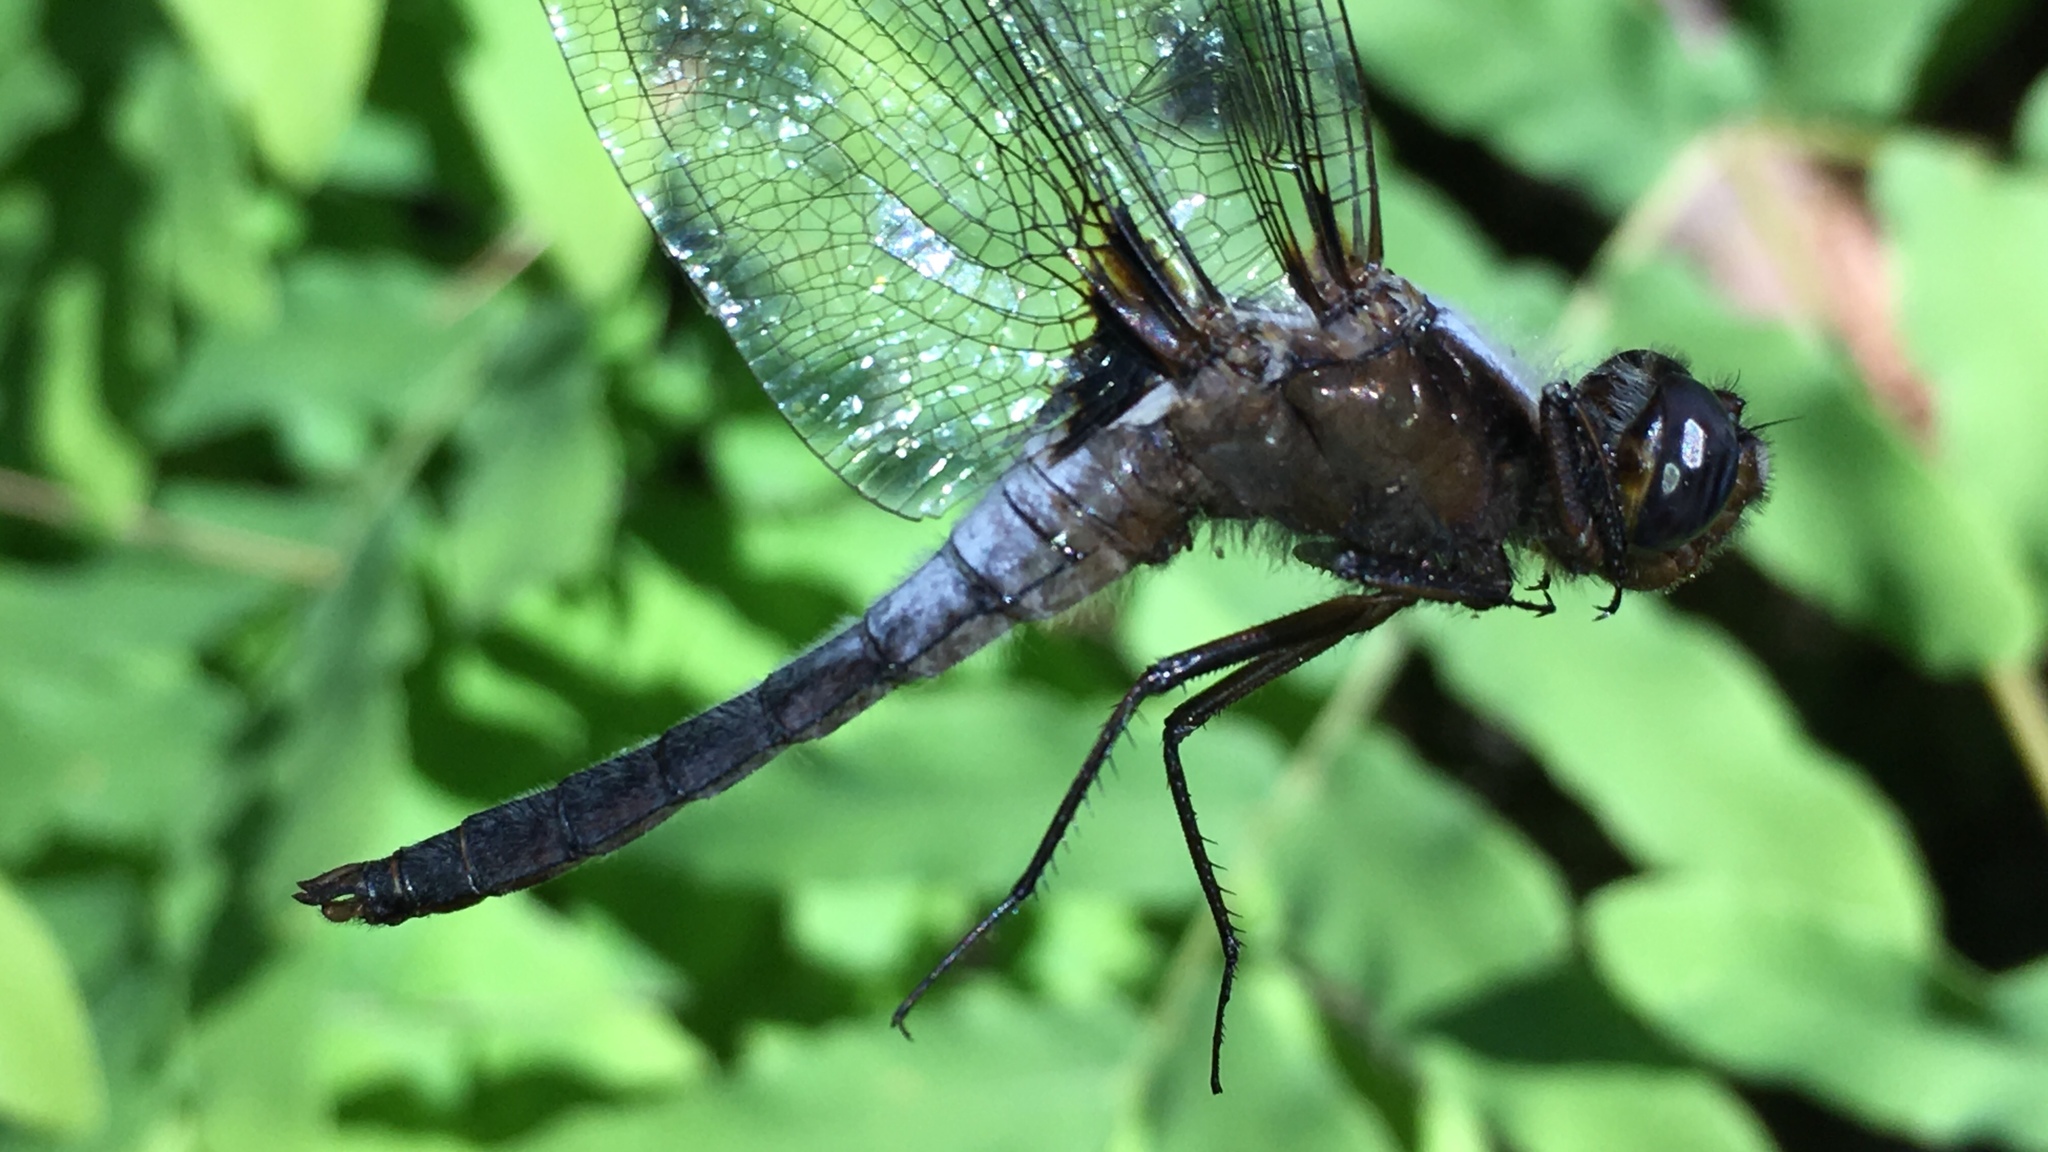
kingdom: Animalia
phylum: Arthropoda
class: Insecta
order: Odonata
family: Libellulidae
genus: Ladona
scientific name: Ladona julia
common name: Chalk-fronted corporal
